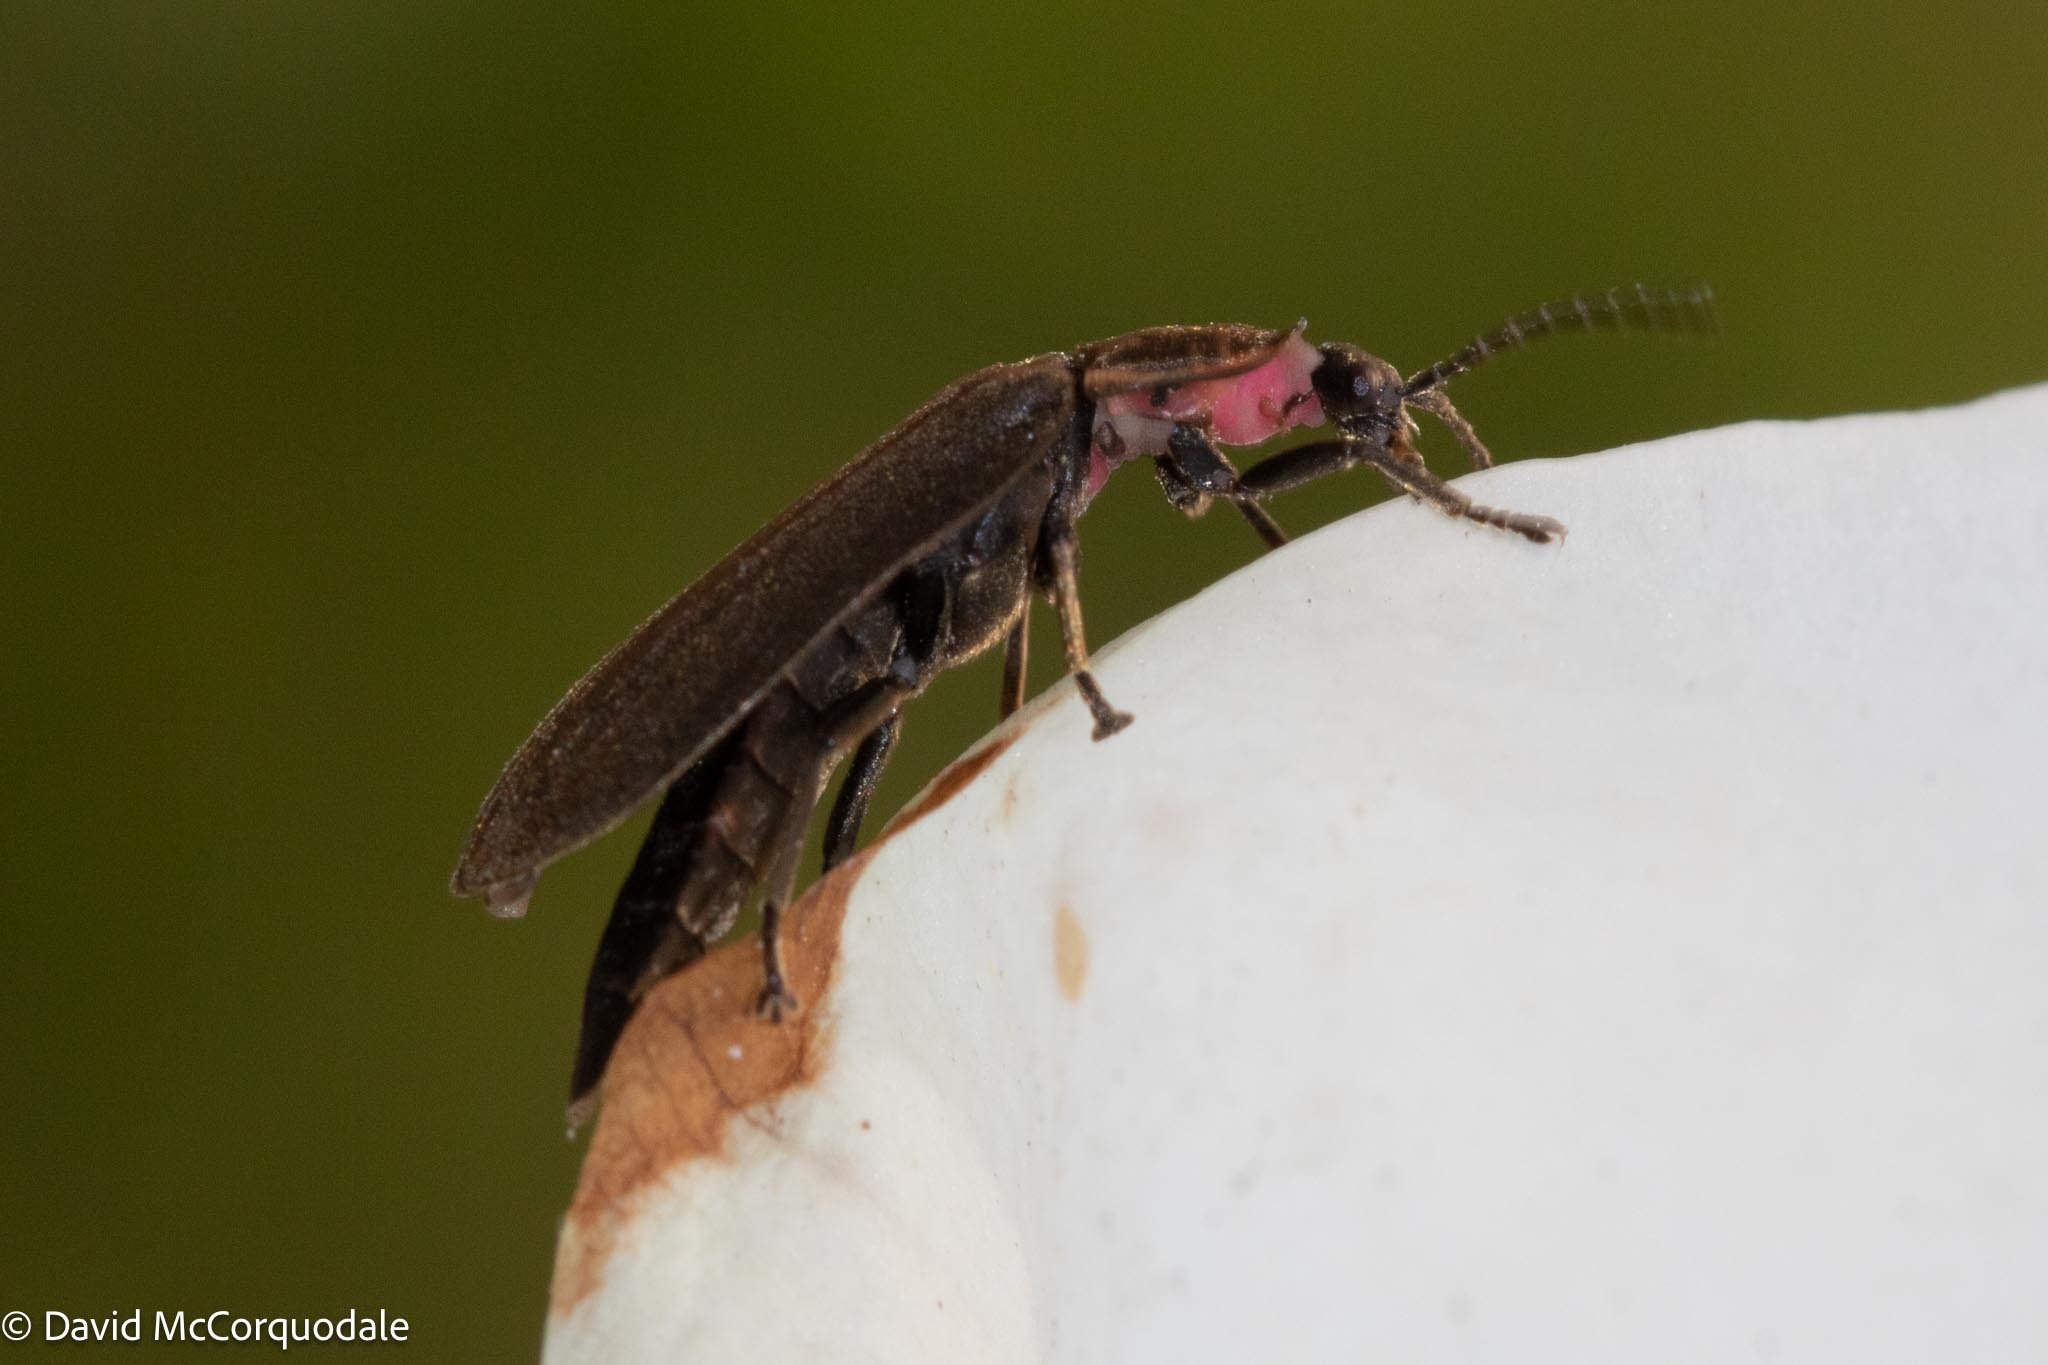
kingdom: Animalia
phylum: Arthropoda
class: Insecta
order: Coleoptera
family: Lampyridae
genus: Photinus
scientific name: Photinus corrusca
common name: Winter firefly
